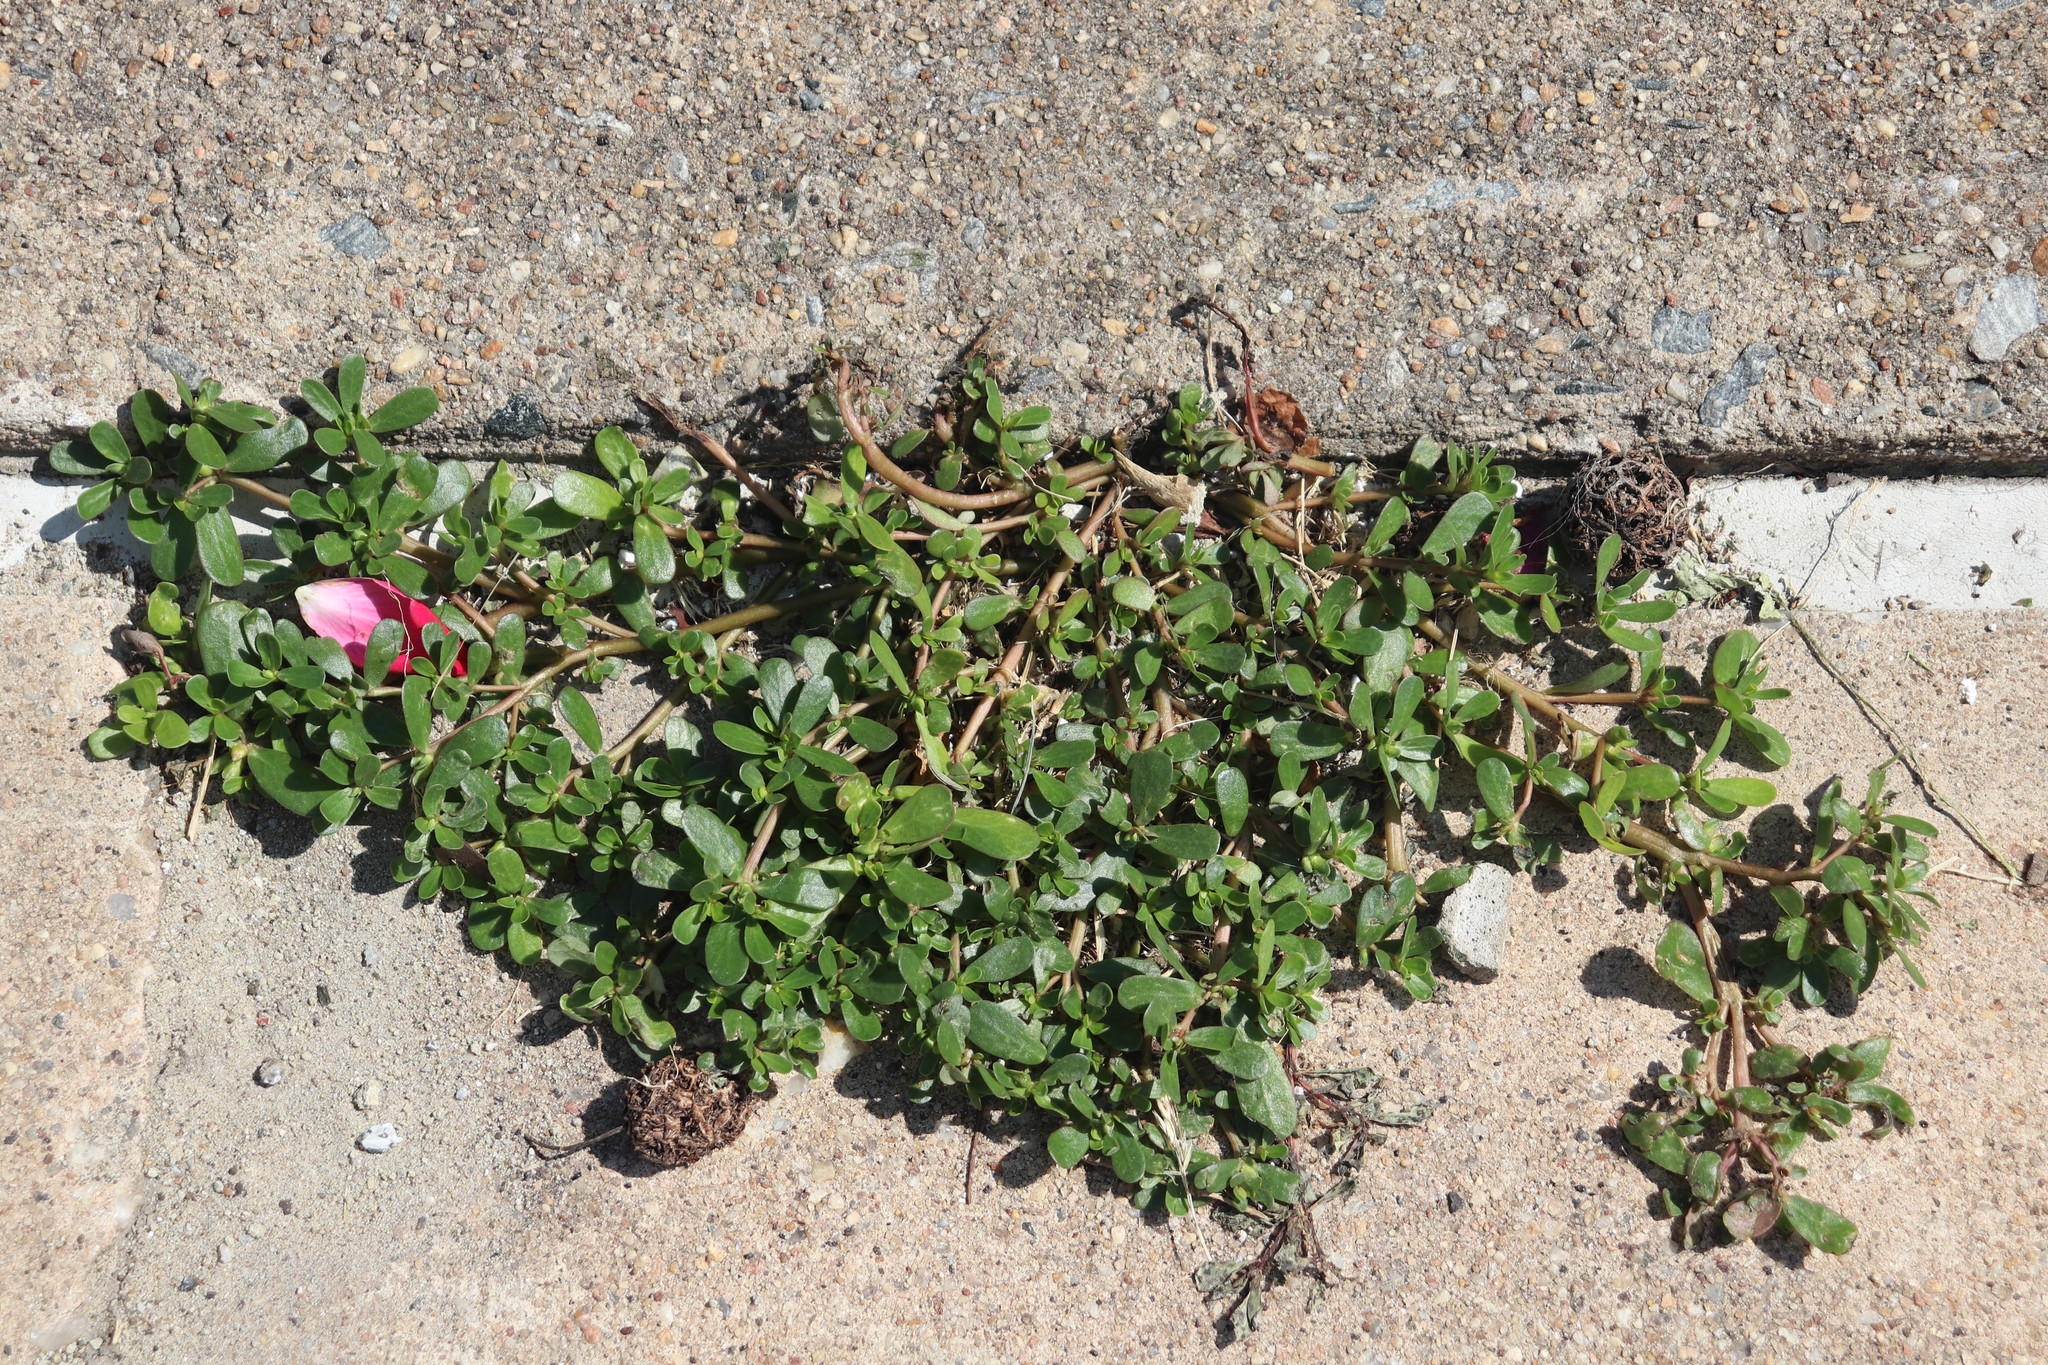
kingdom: Plantae
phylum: Tracheophyta
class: Magnoliopsida
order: Caryophyllales
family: Portulacaceae
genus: Portulaca
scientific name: Portulaca oleracea
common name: Common purslane
